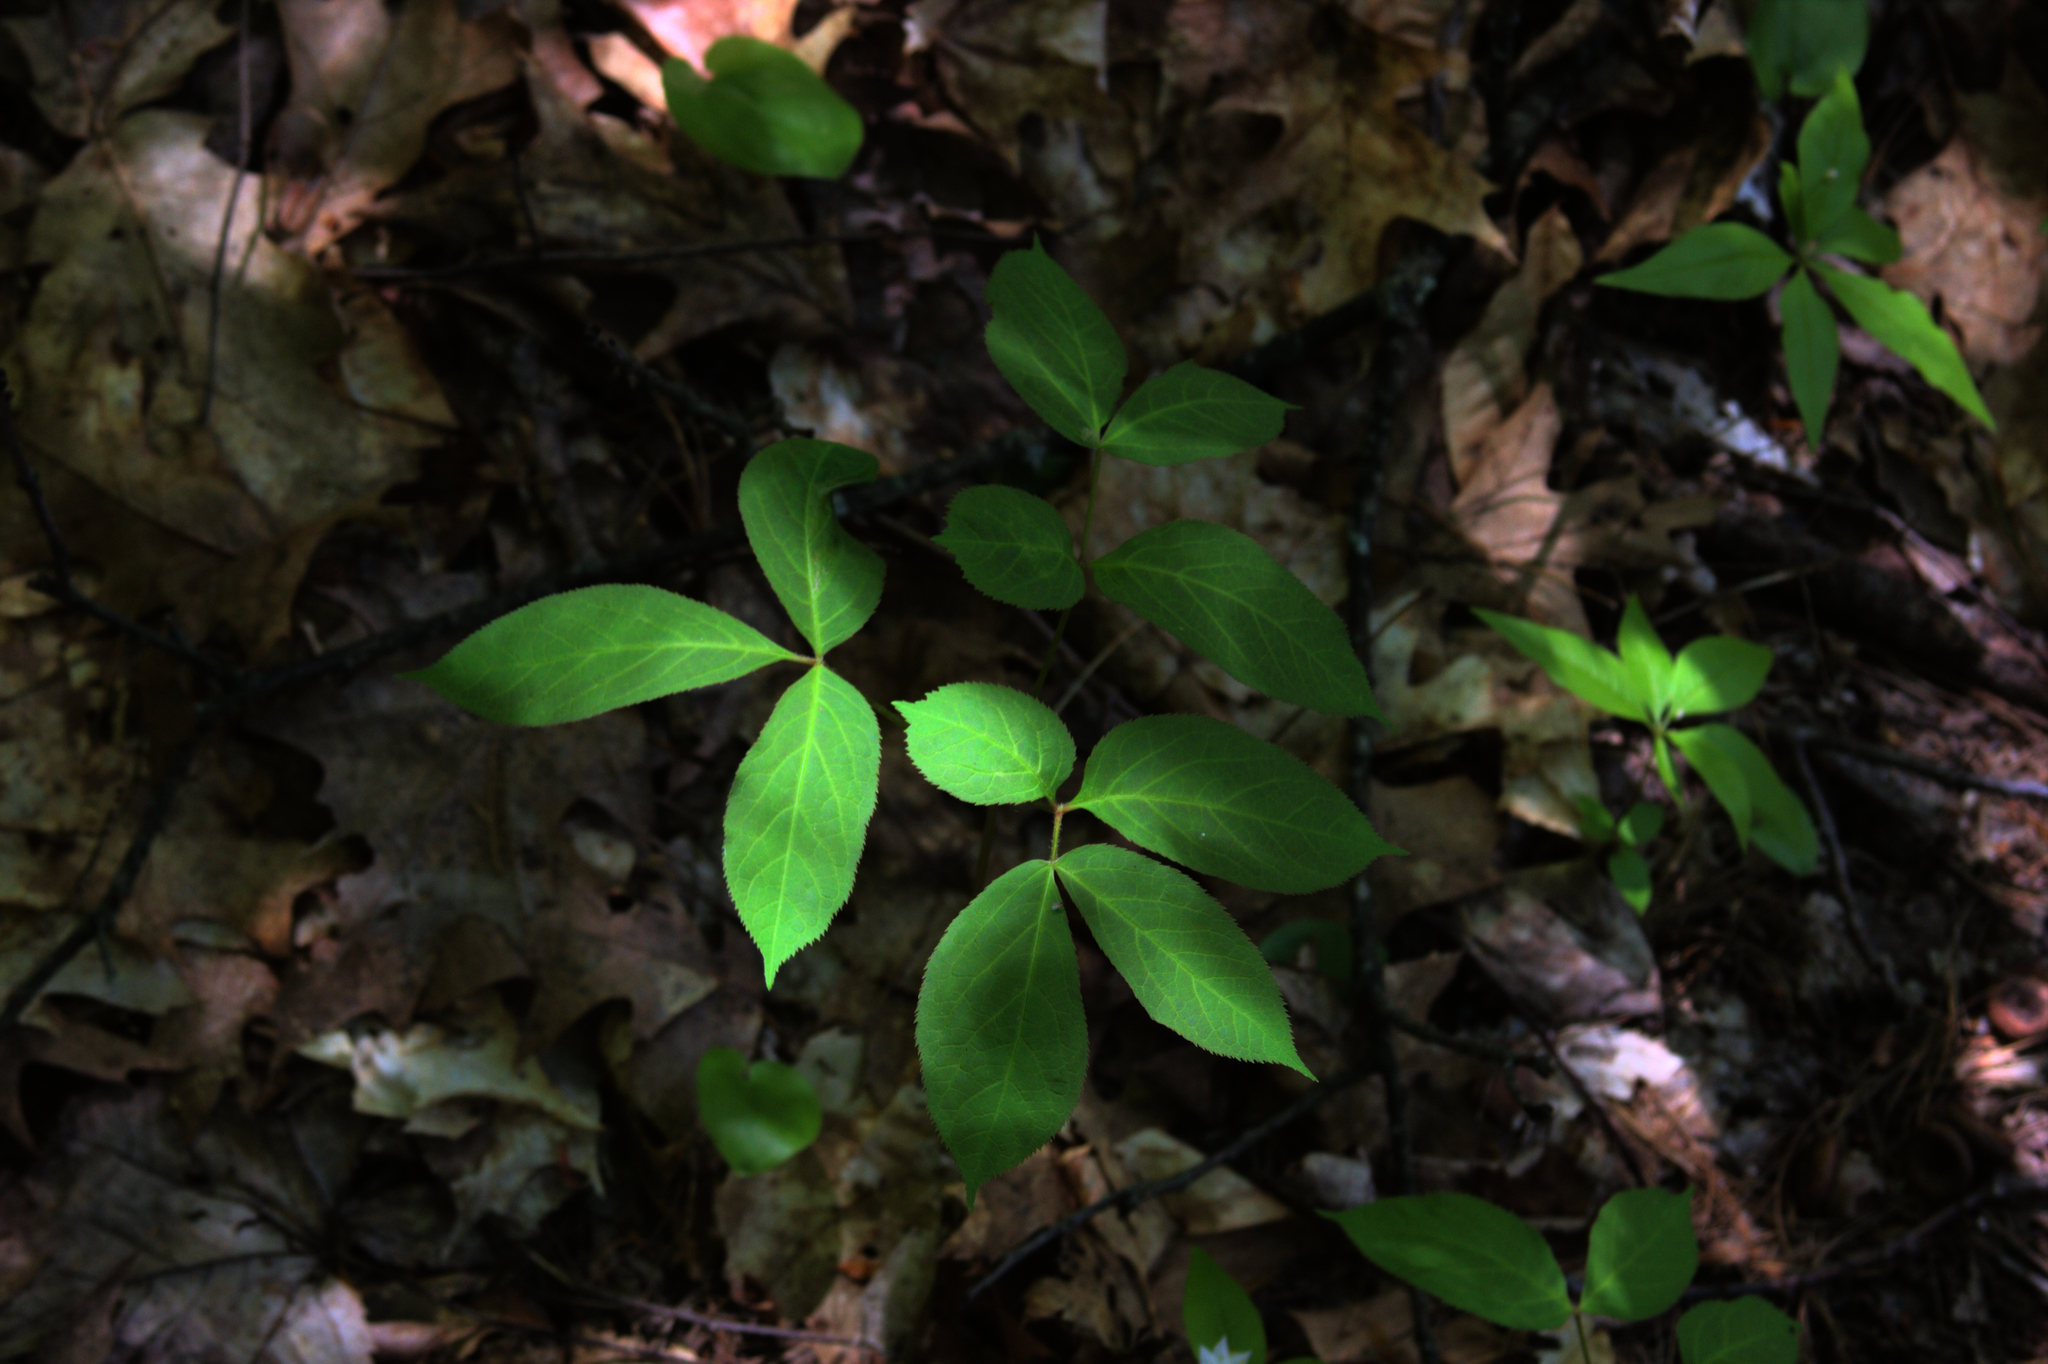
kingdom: Plantae
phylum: Tracheophyta
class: Magnoliopsida
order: Apiales
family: Araliaceae
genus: Aralia
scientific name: Aralia nudicaulis
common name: Wild sarsaparilla
